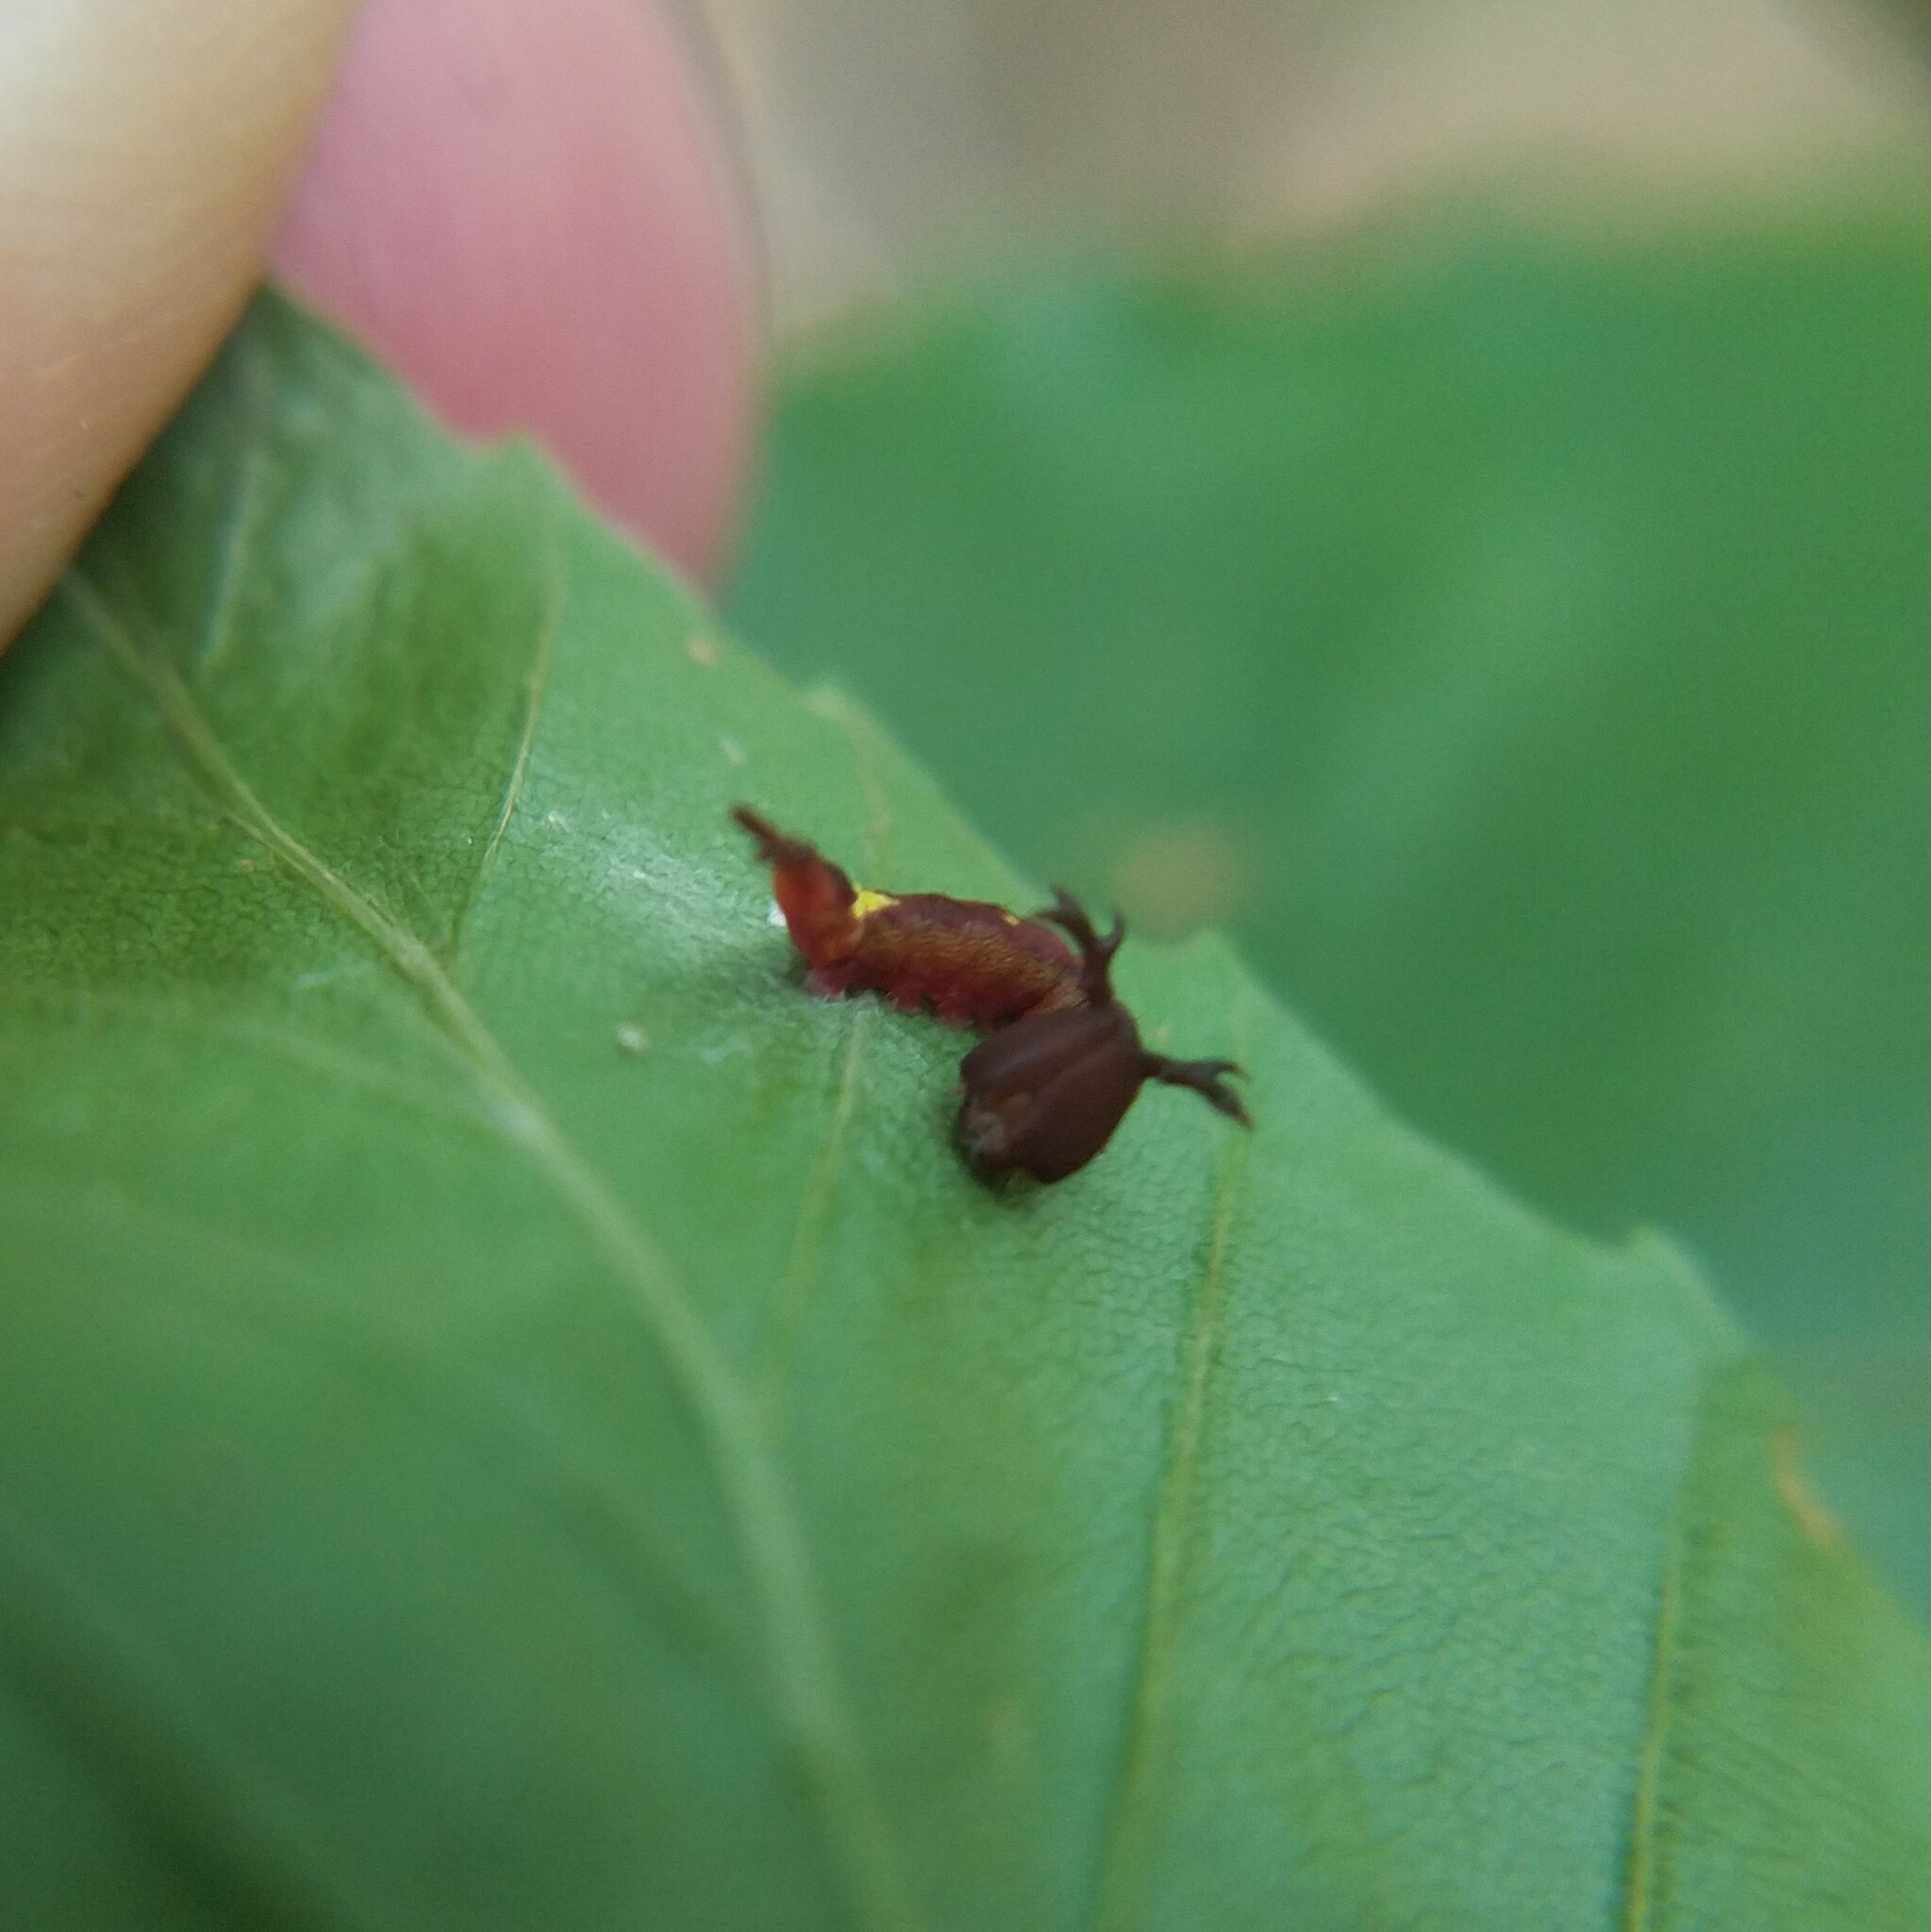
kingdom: Animalia
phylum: Arthropoda
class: Insecta
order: Lepidoptera
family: Notodontidae
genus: Disphragis
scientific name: Disphragis Cecrita biundata
